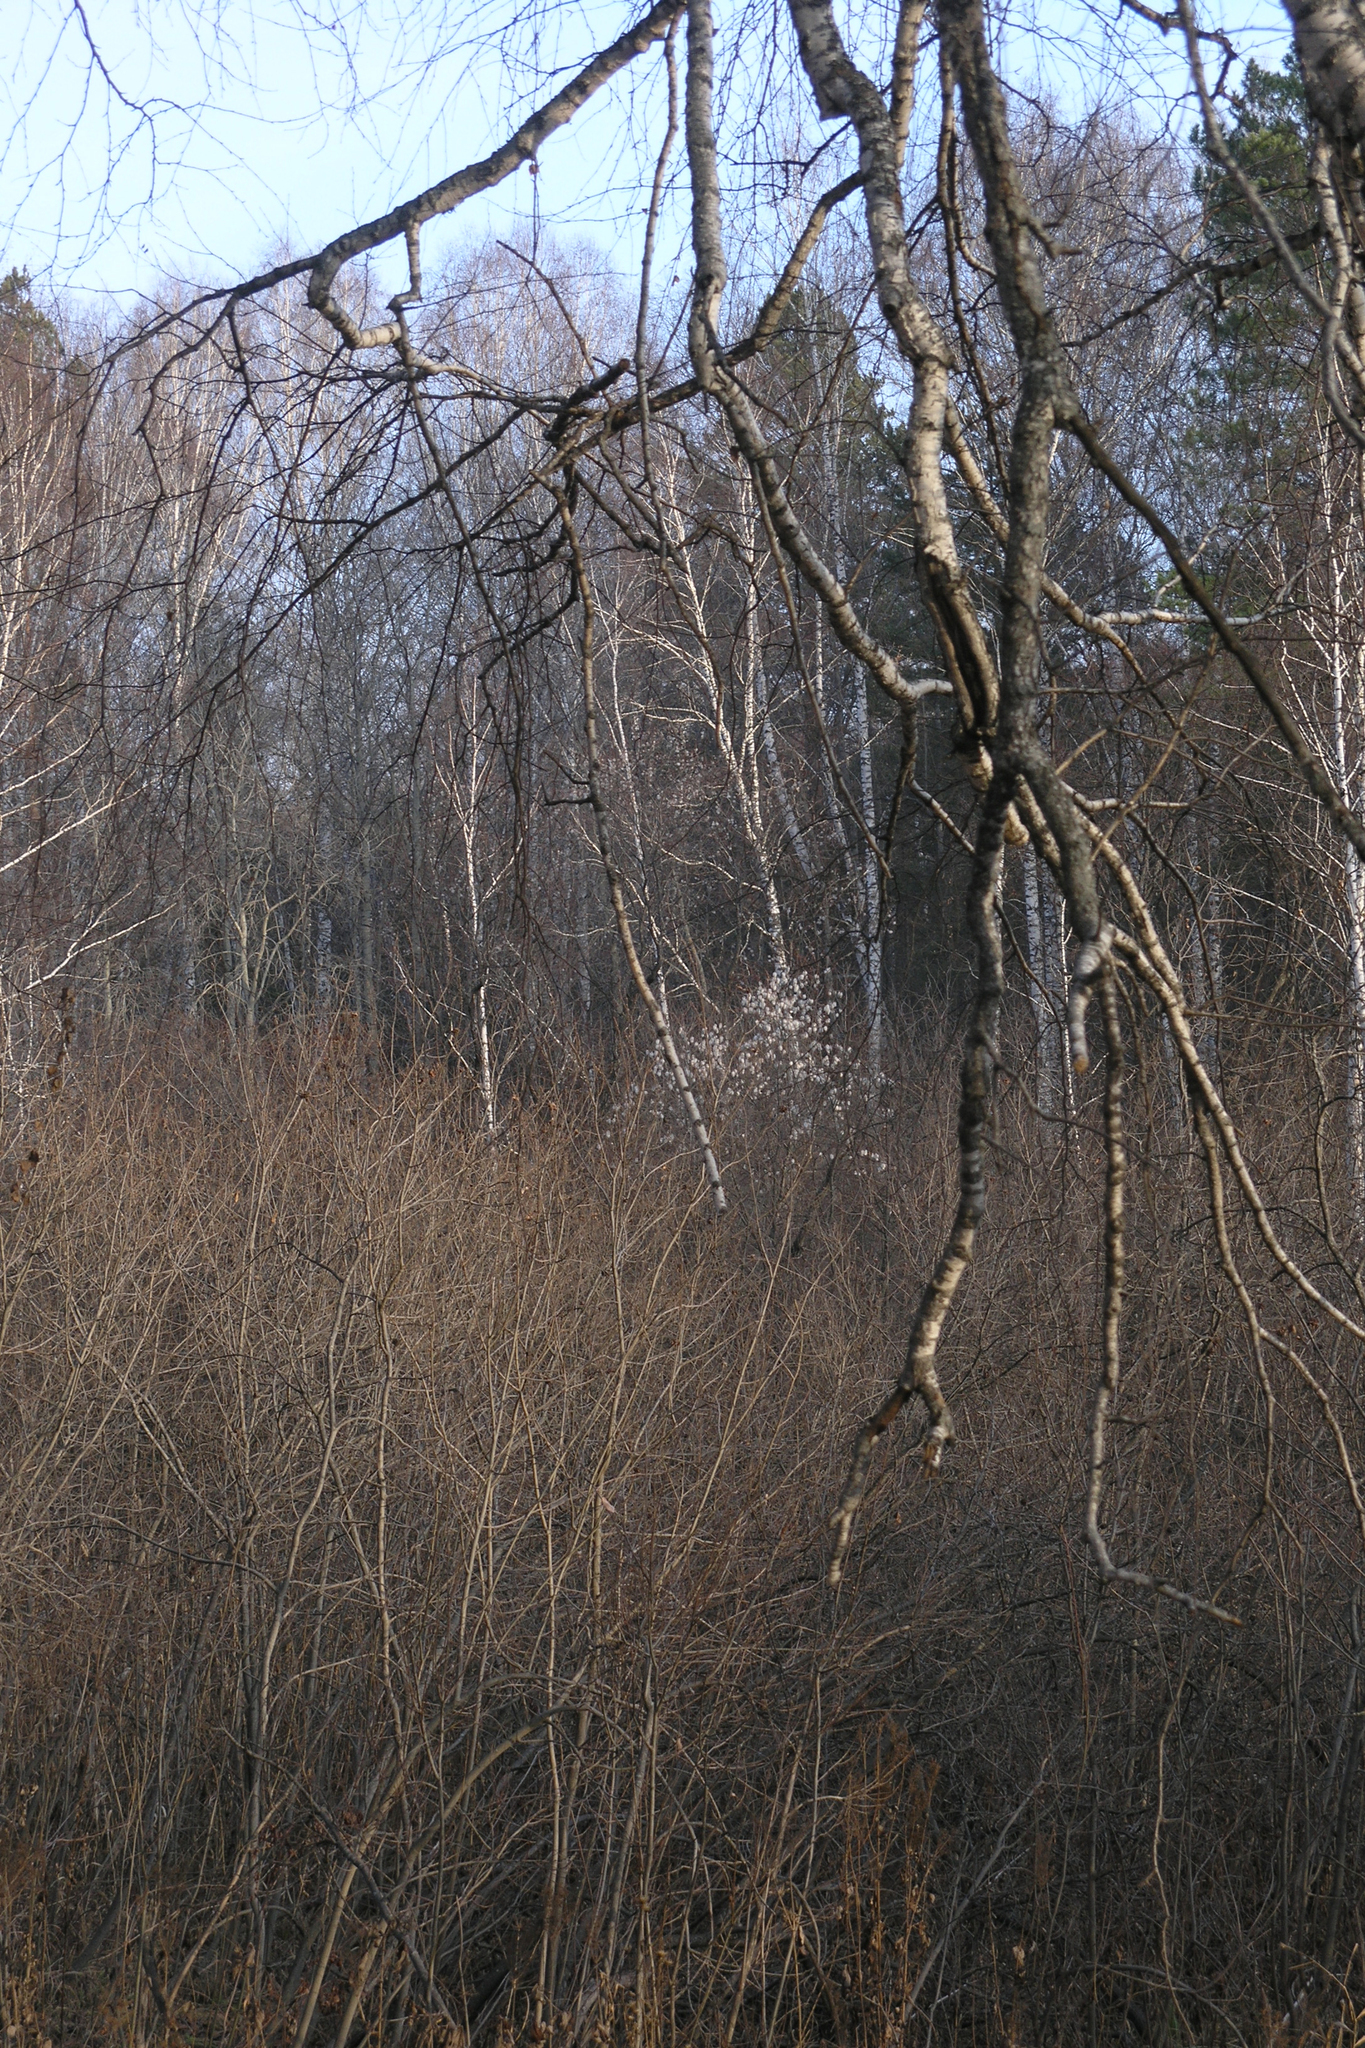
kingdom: Plantae
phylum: Tracheophyta
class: Magnoliopsida
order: Malpighiales
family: Salicaceae
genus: Salix
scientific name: Salix pentandra
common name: Bay willow
